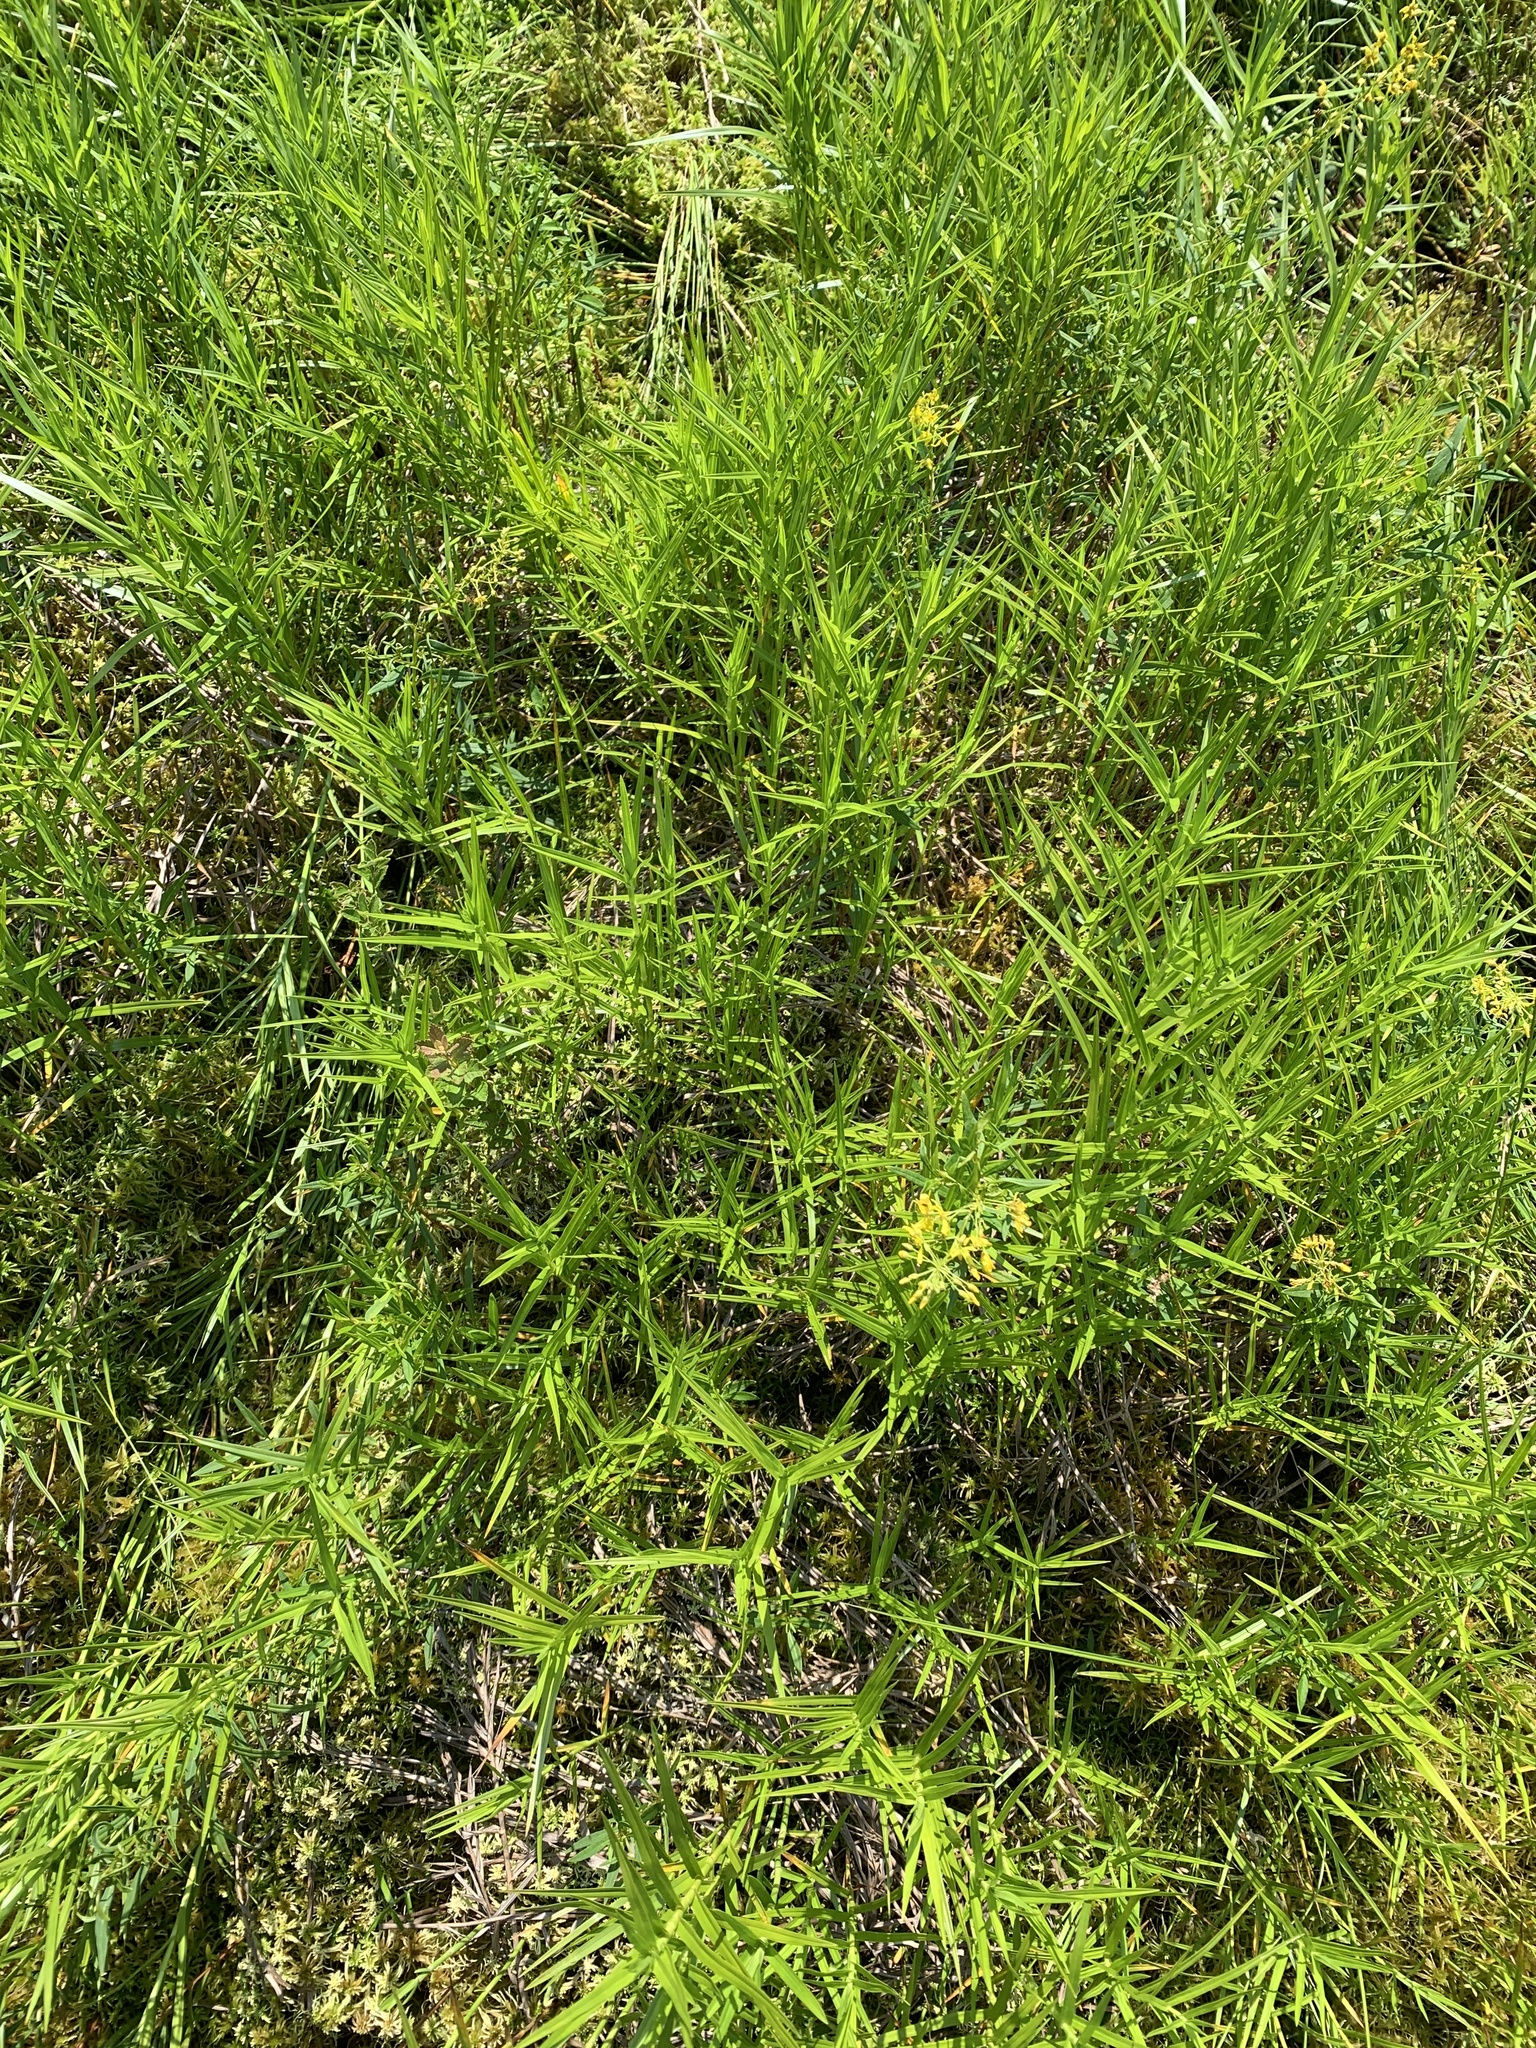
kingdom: Plantae
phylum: Tracheophyta
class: Liliopsida
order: Poales
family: Cyperaceae
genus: Dulichium
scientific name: Dulichium arundinaceum
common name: Three-way sedge
